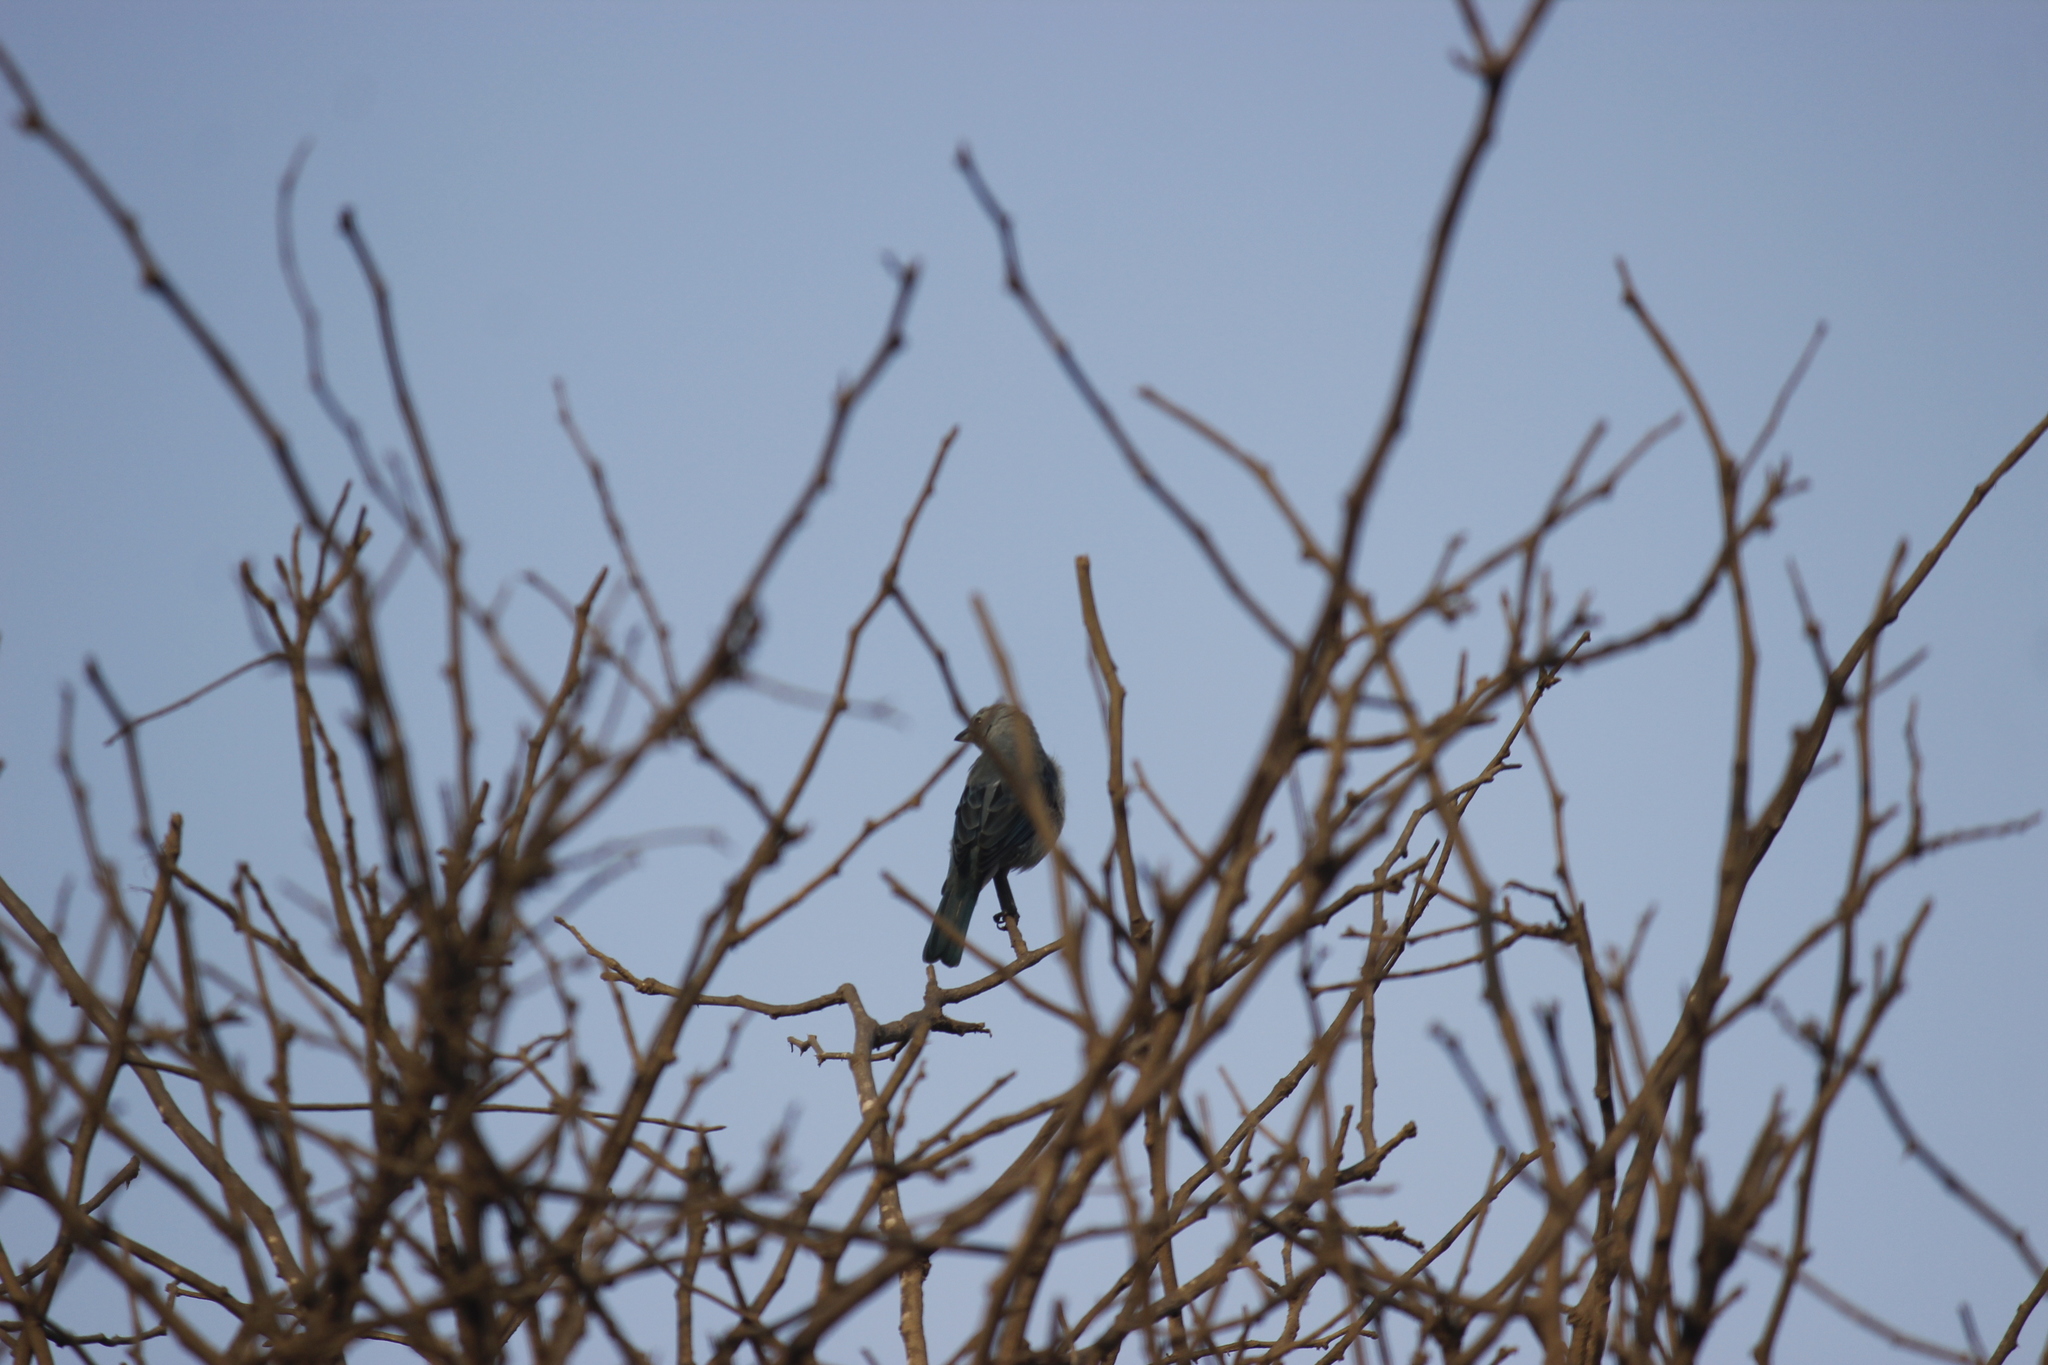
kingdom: Animalia
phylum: Chordata
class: Aves
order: Passeriformes
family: Thraupidae
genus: Thraupis
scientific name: Thraupis episcopus
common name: Blue-grey tanager
